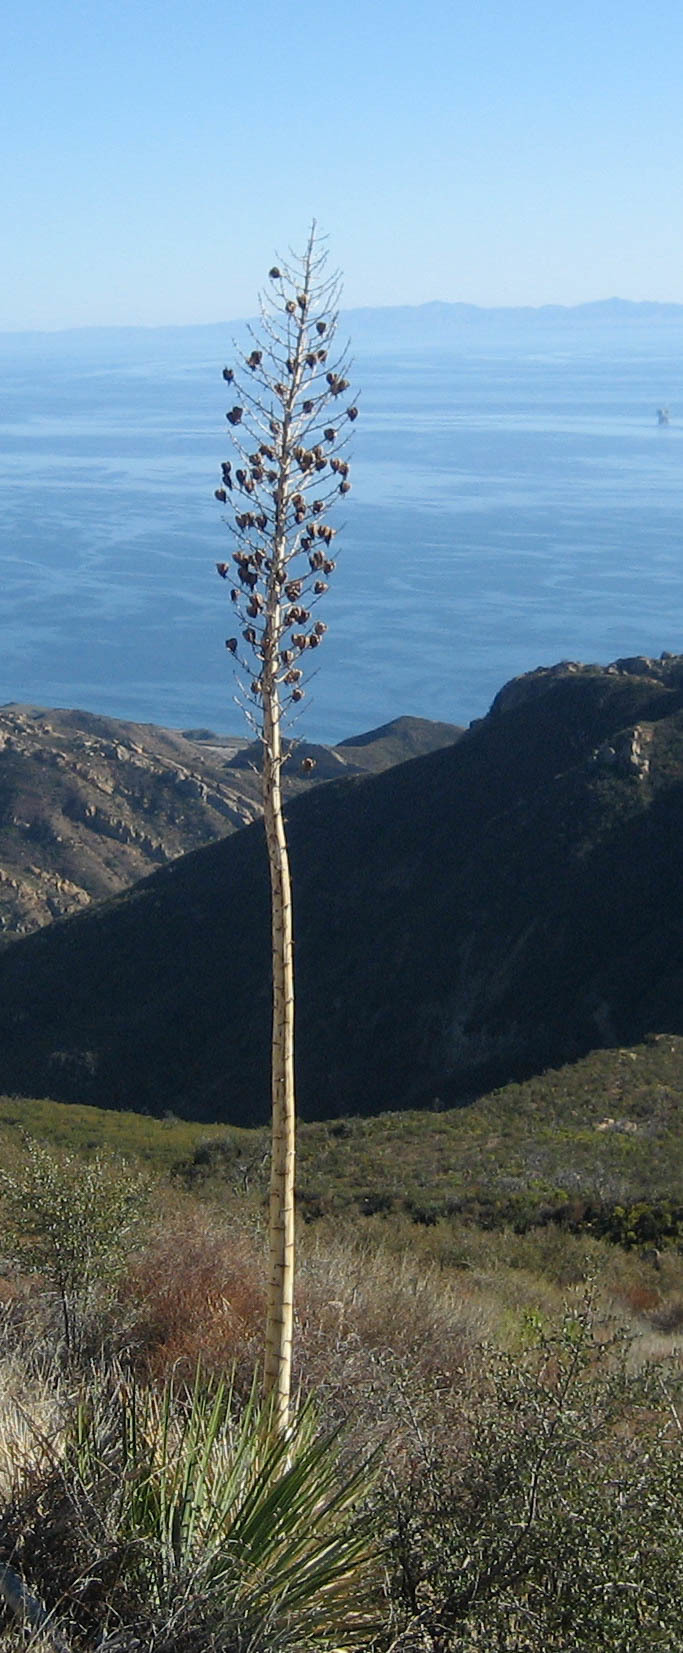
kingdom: Plantae
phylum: Tracheophyta
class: Liliopsida
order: Asparagales
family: Asparagaceae
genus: Hesperoyucca
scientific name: Hesperoyucca whipplei
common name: Our lord's-candle
